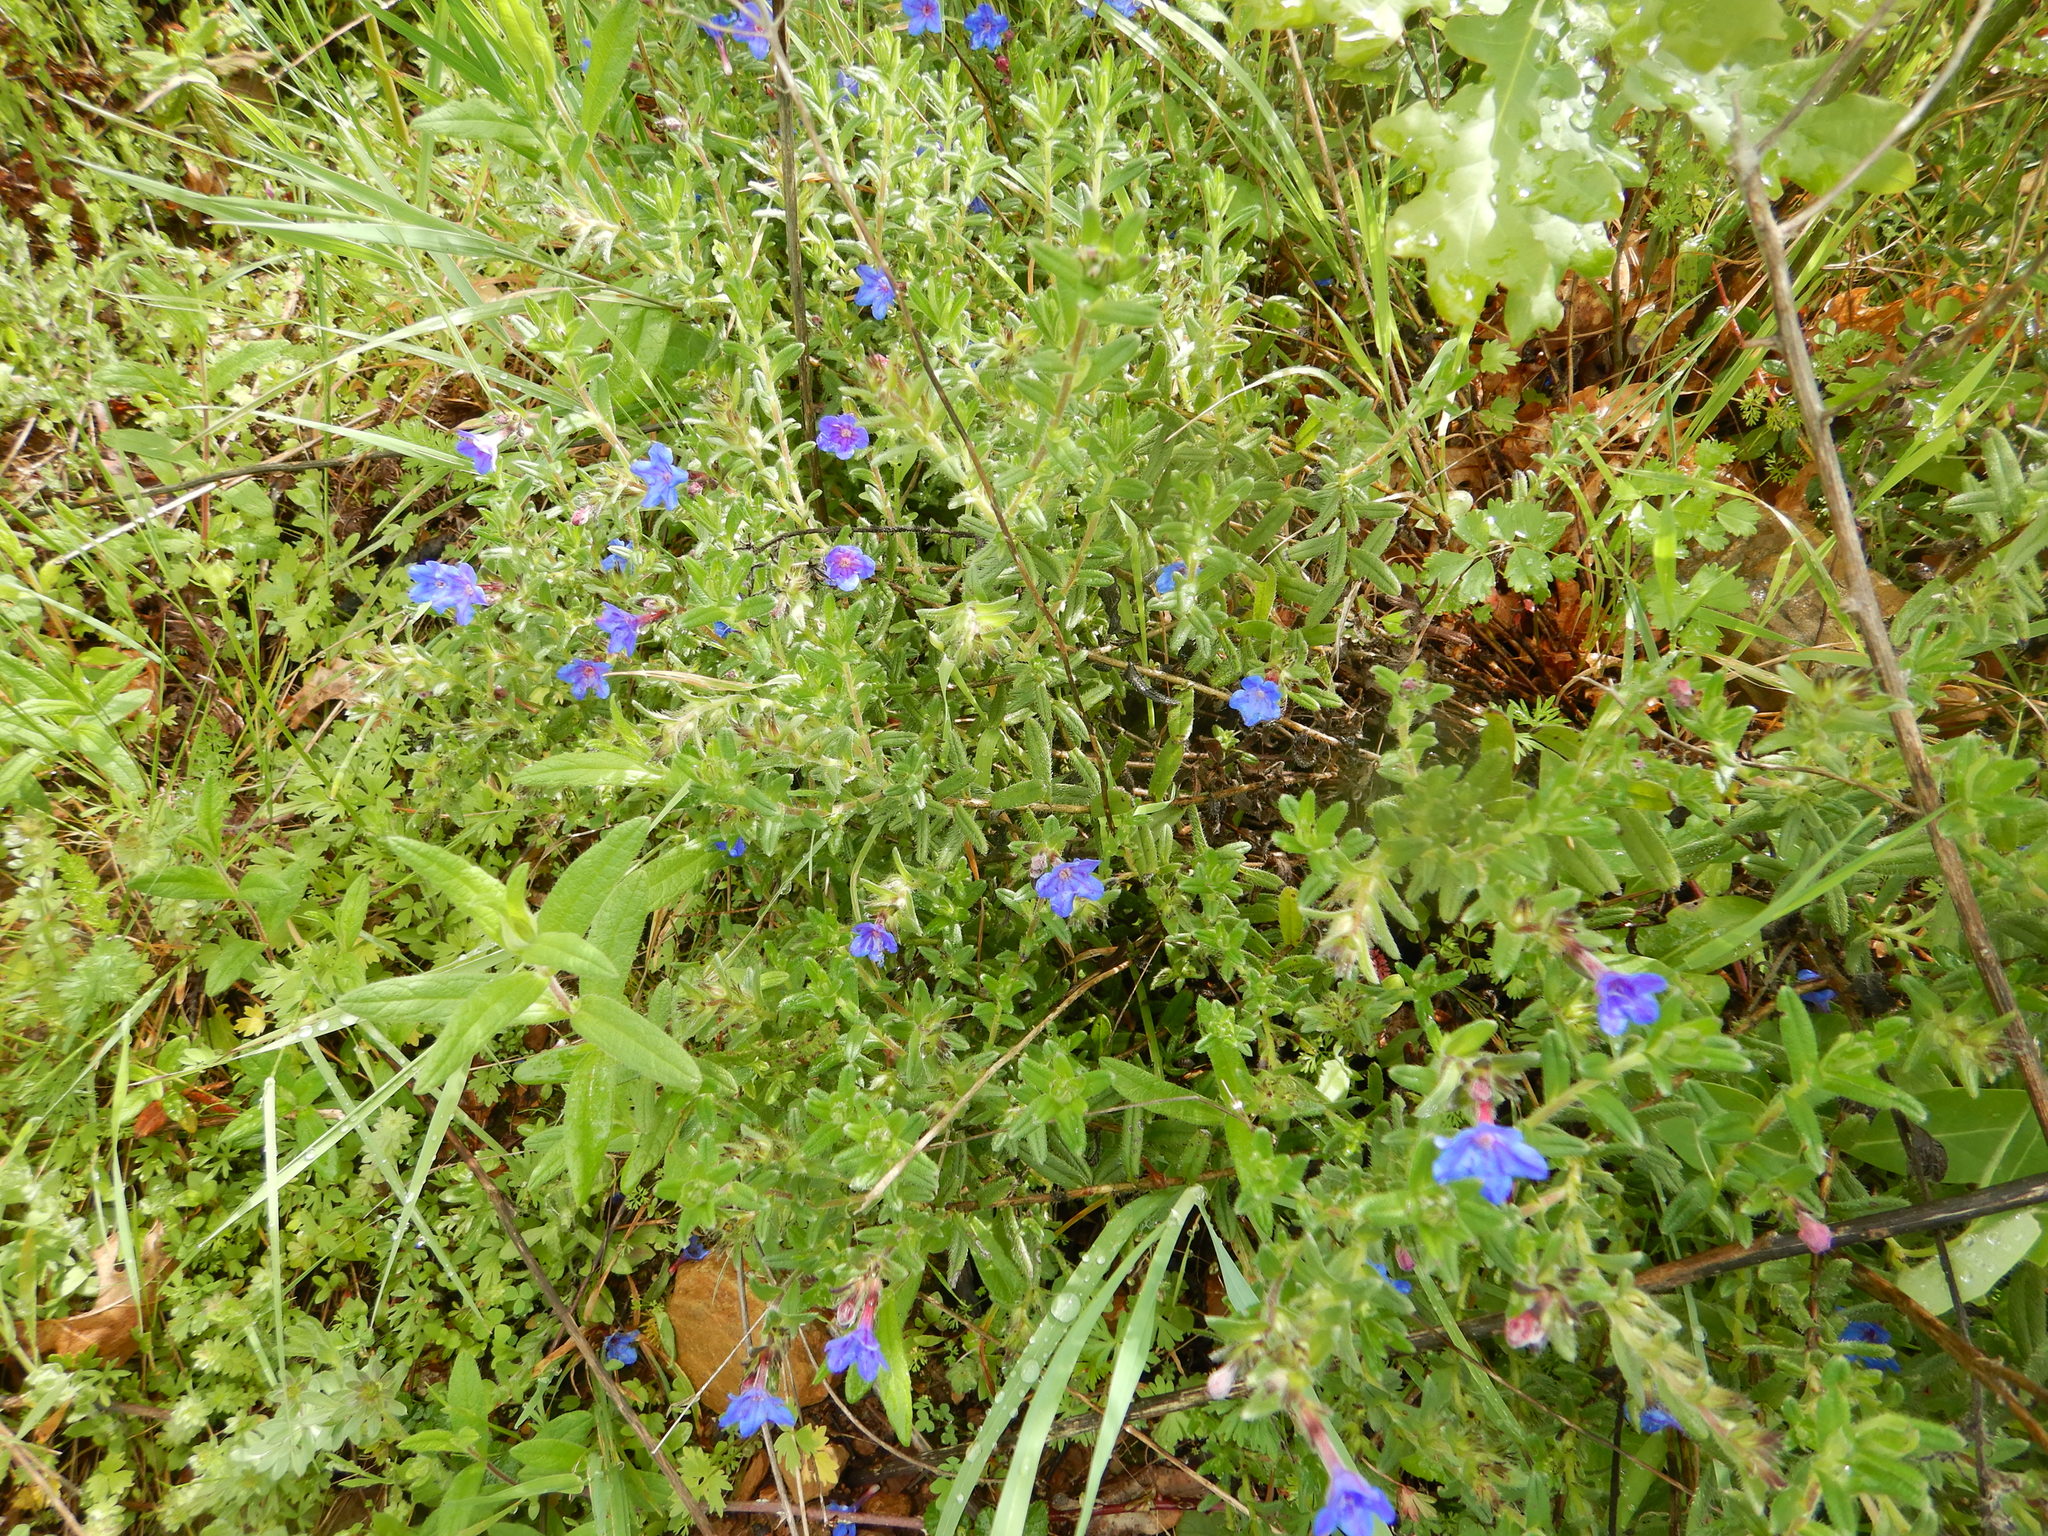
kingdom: Plantae
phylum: Tracheophyta
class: Magnoliopsida
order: Boraginales
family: Boraginaceae
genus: Glandora
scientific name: Glandora prostrata
